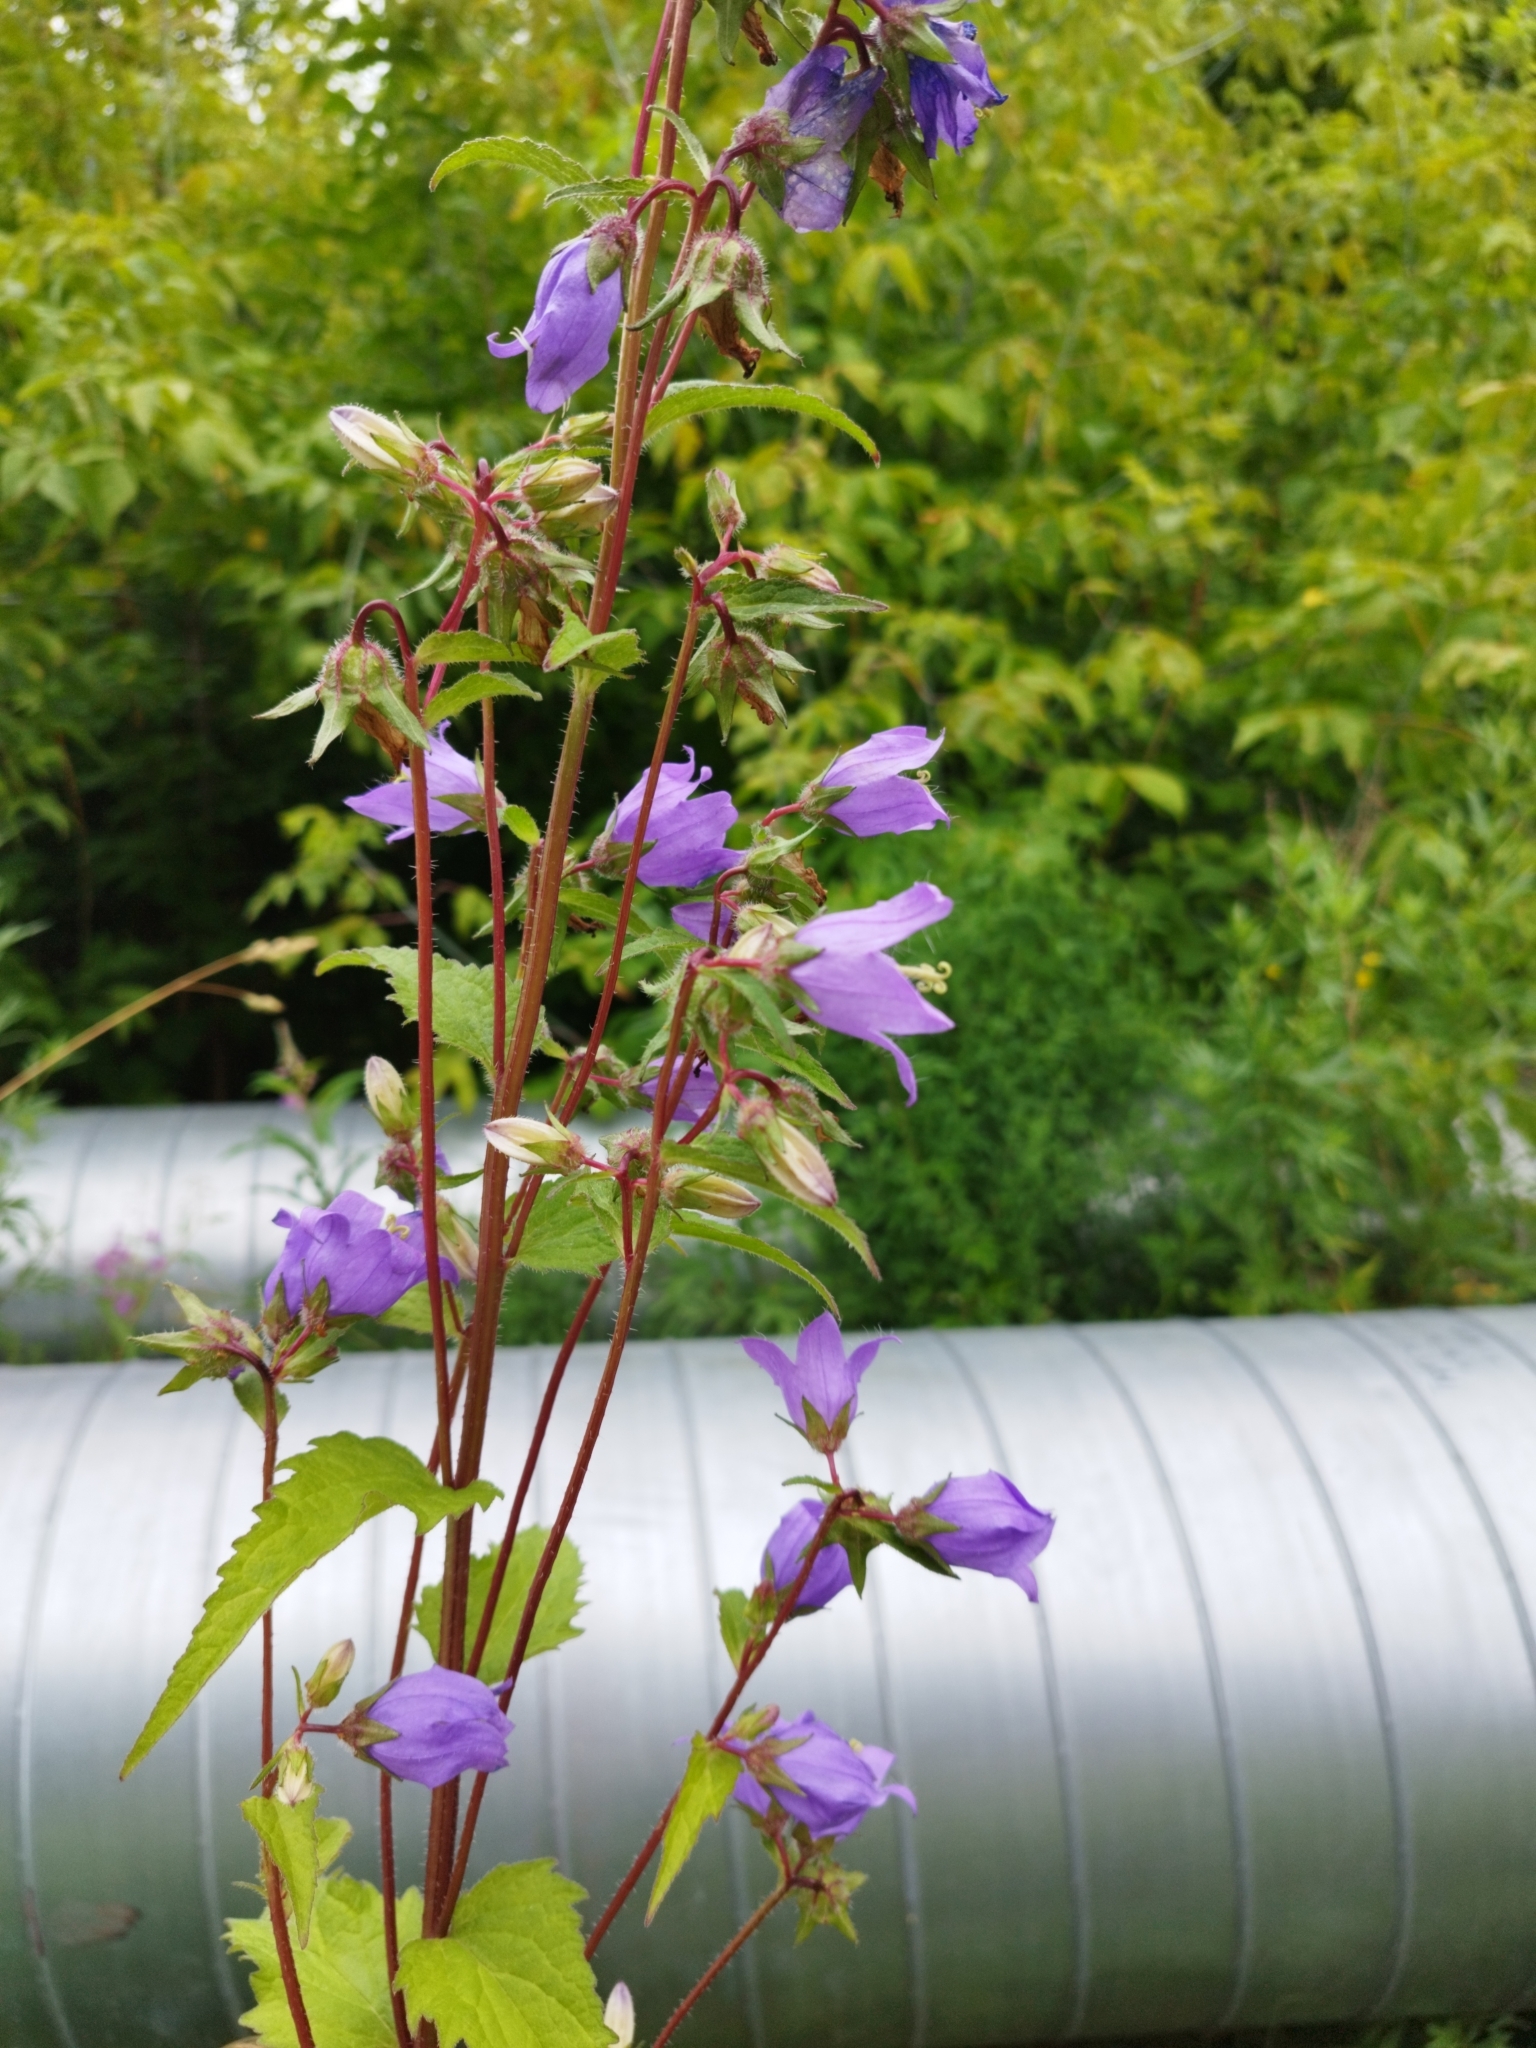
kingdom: Plantae
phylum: Tracheophyta
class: Magnoliopsida
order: Asterales
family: Campanulaceae
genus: Campanula
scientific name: Campanula trachelium
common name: Nettle-leaved bellflower
